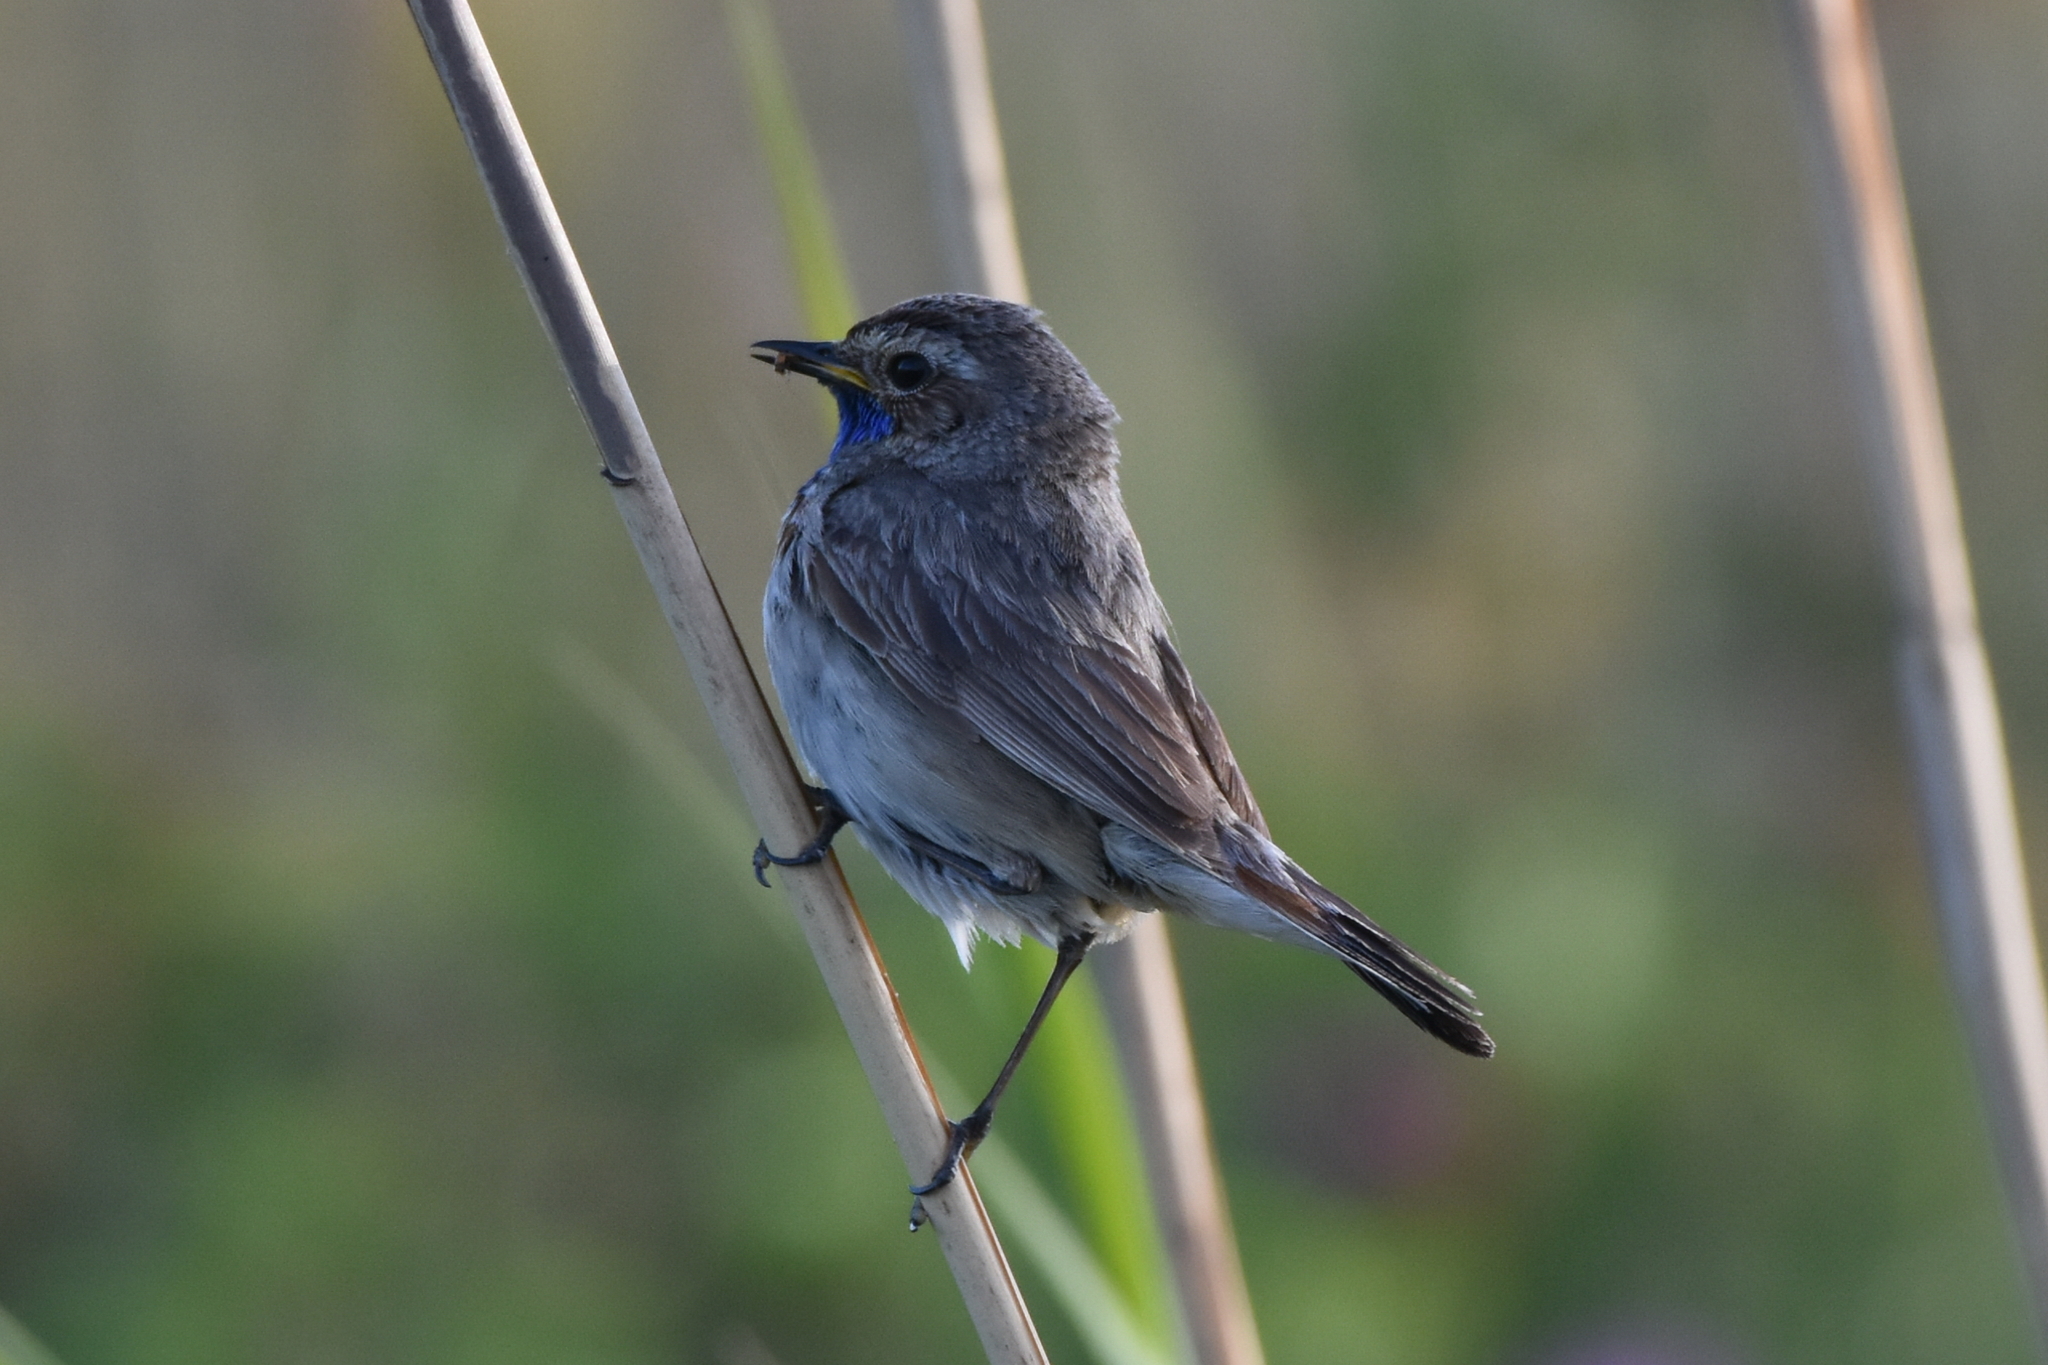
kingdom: Animalia
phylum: Chordata
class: Aves
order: Passeriformes
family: Muscicapidae
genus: Luscinia
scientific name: Luscinia svecica
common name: Bluethroat
